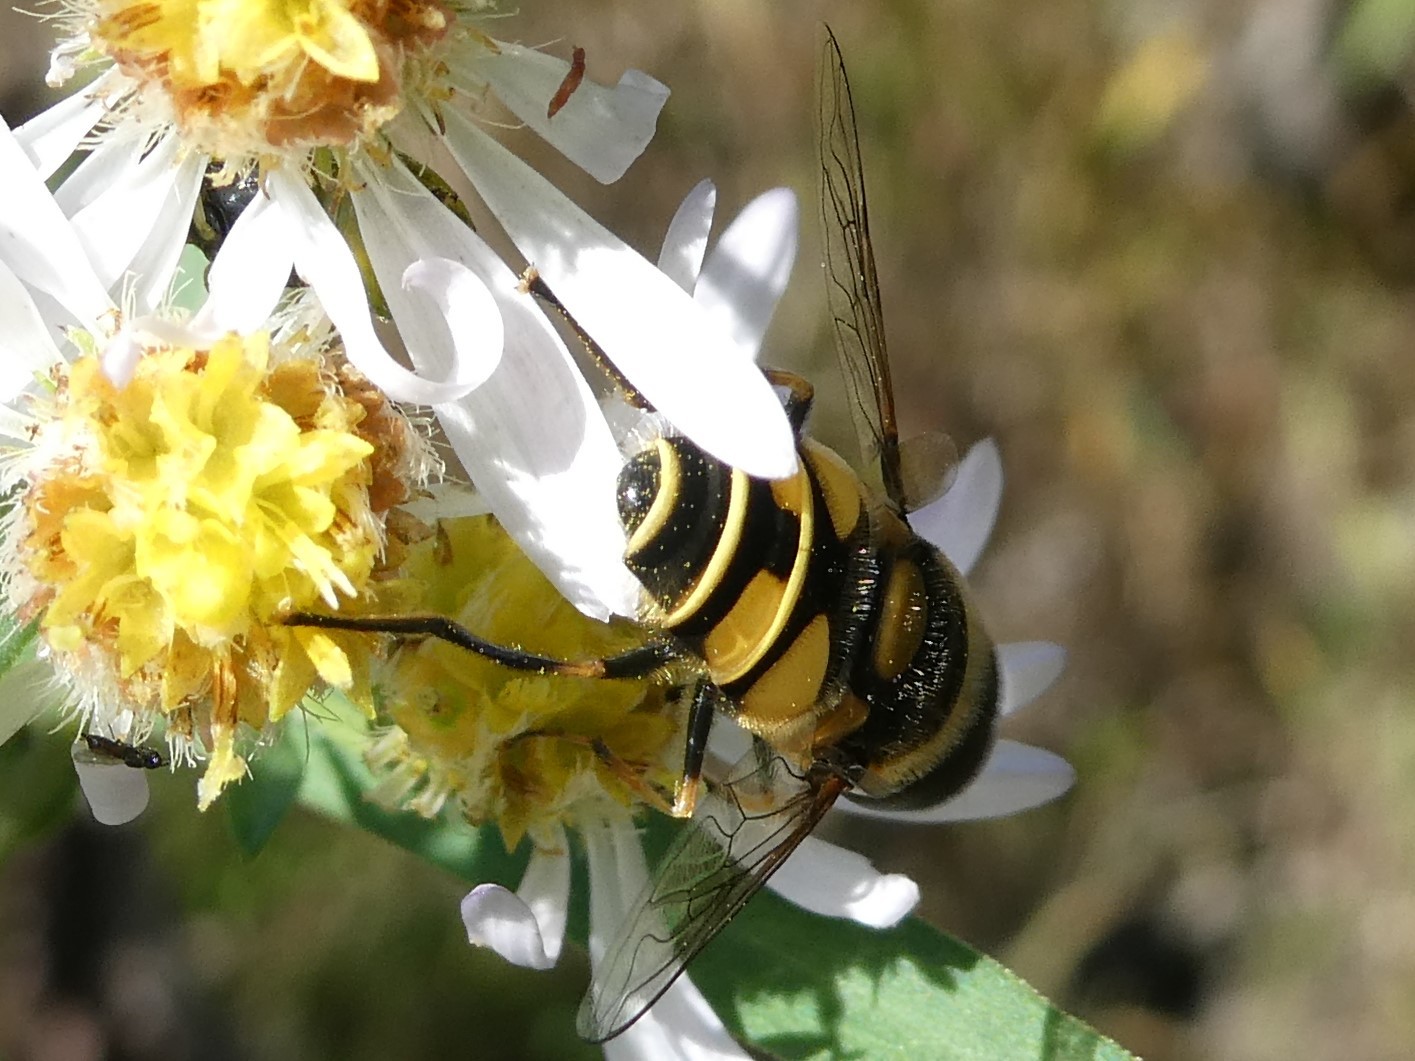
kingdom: Animalia
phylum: Arthropoda
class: Insecta
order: Diptera
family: Syrphidae
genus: Eristalis
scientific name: Eristalis transversa
